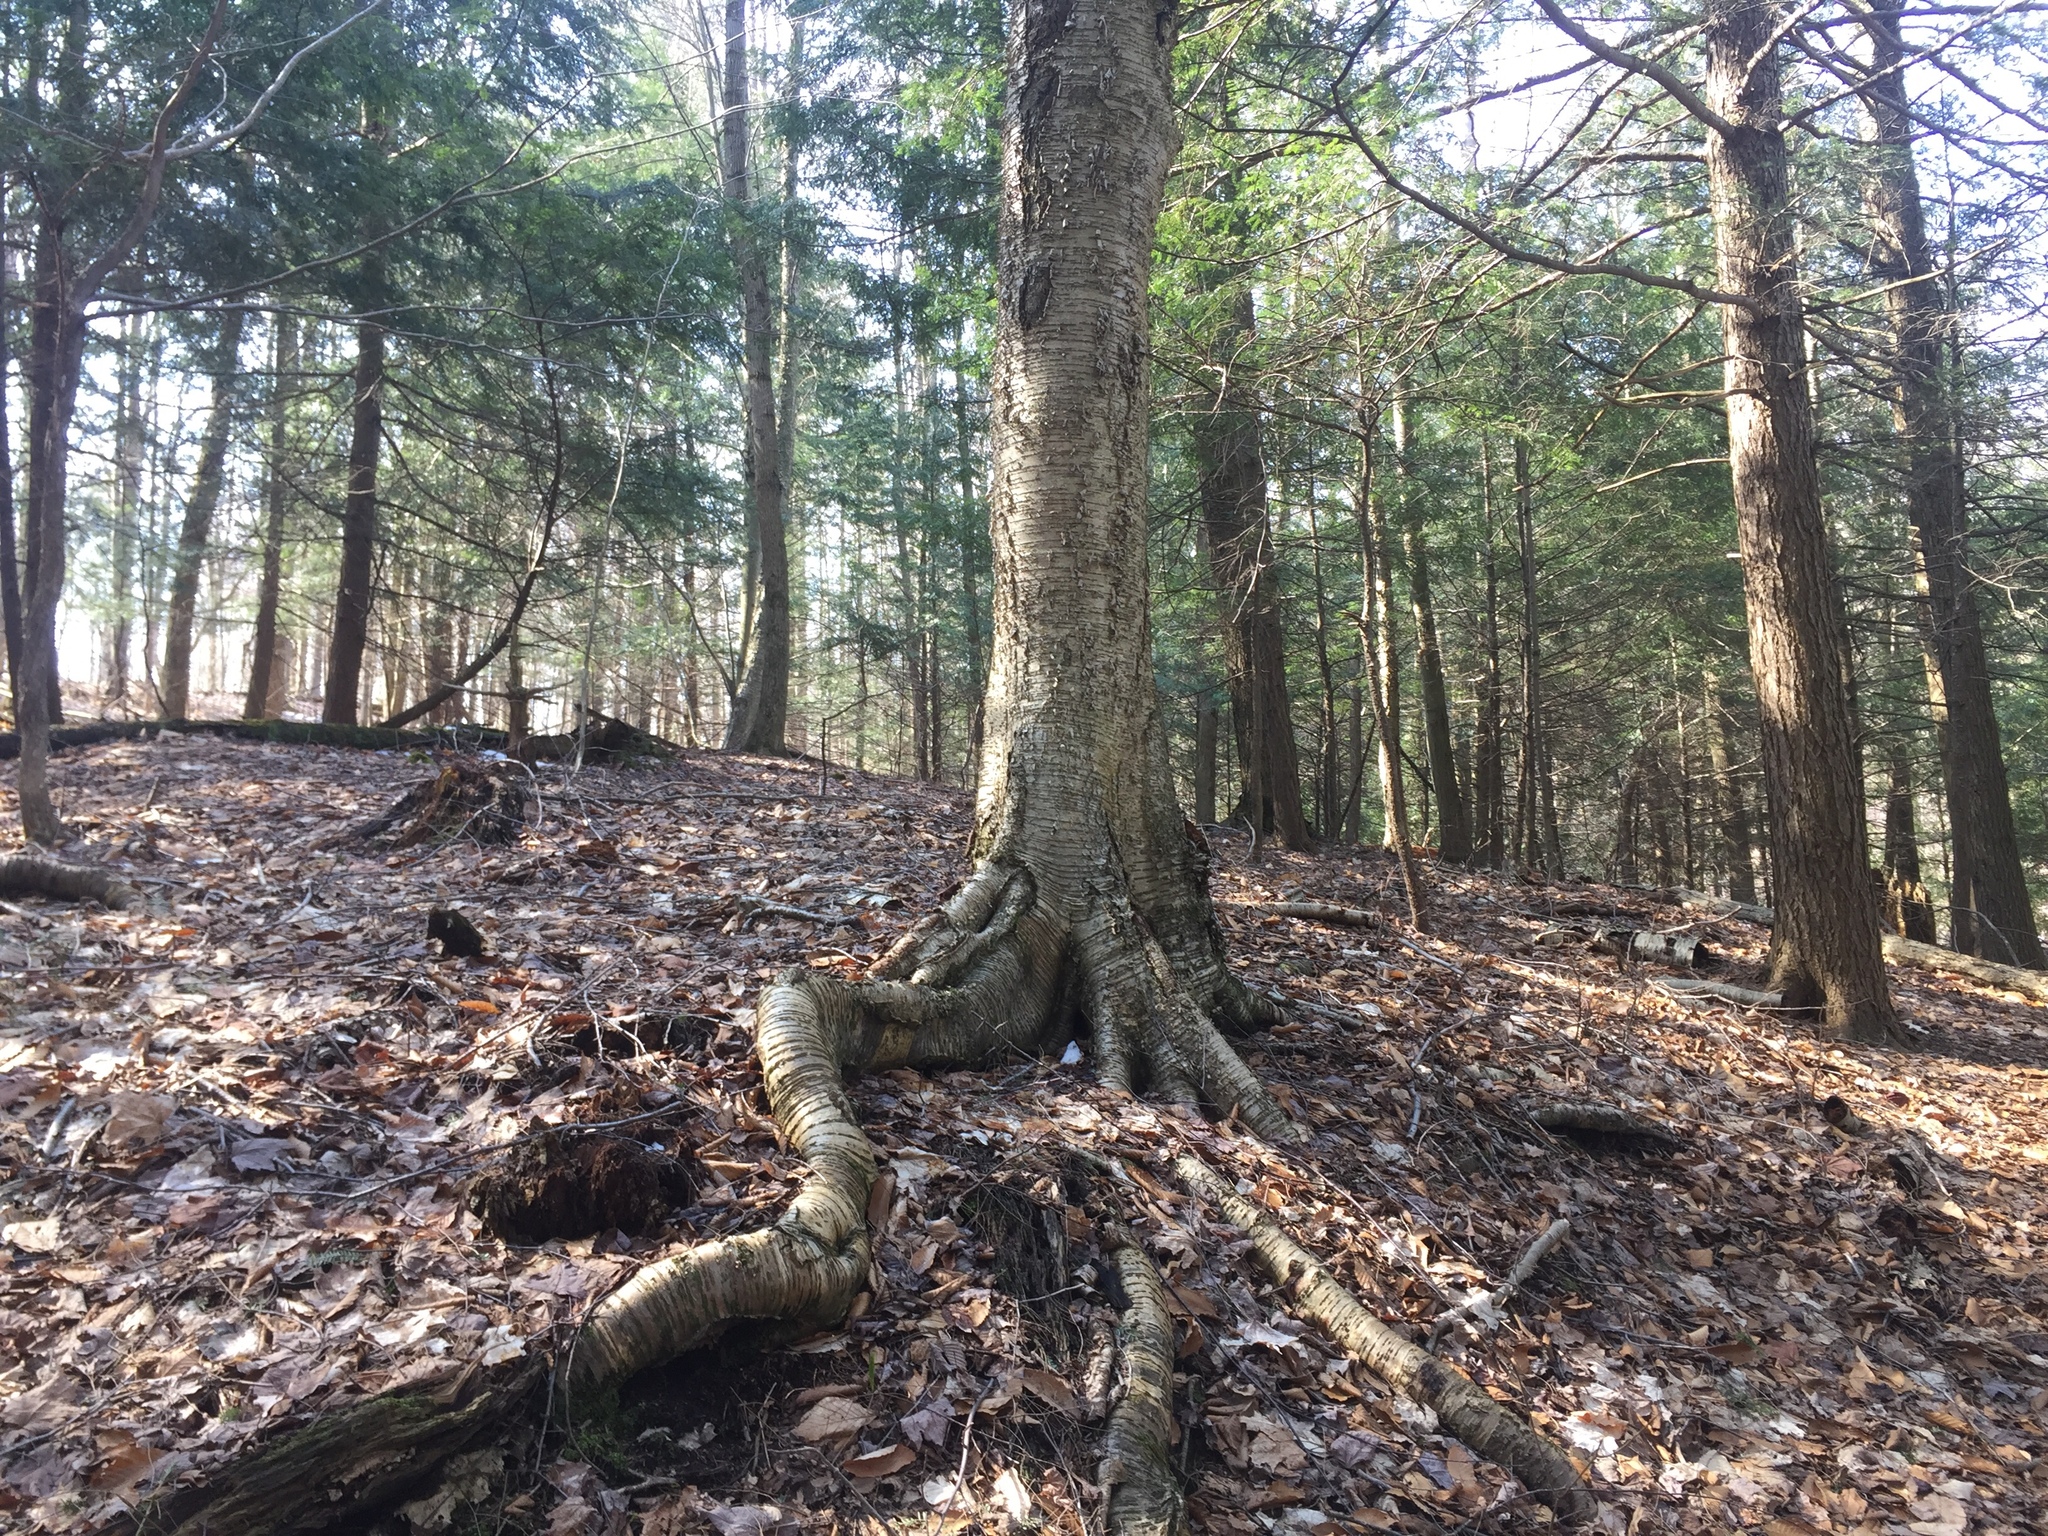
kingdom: Plantae
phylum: Tracheophyta
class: Magnoliopsida
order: Fagales
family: Betulaceae
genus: Betula
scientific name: Betula alleghaniensis
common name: Yellow birch
